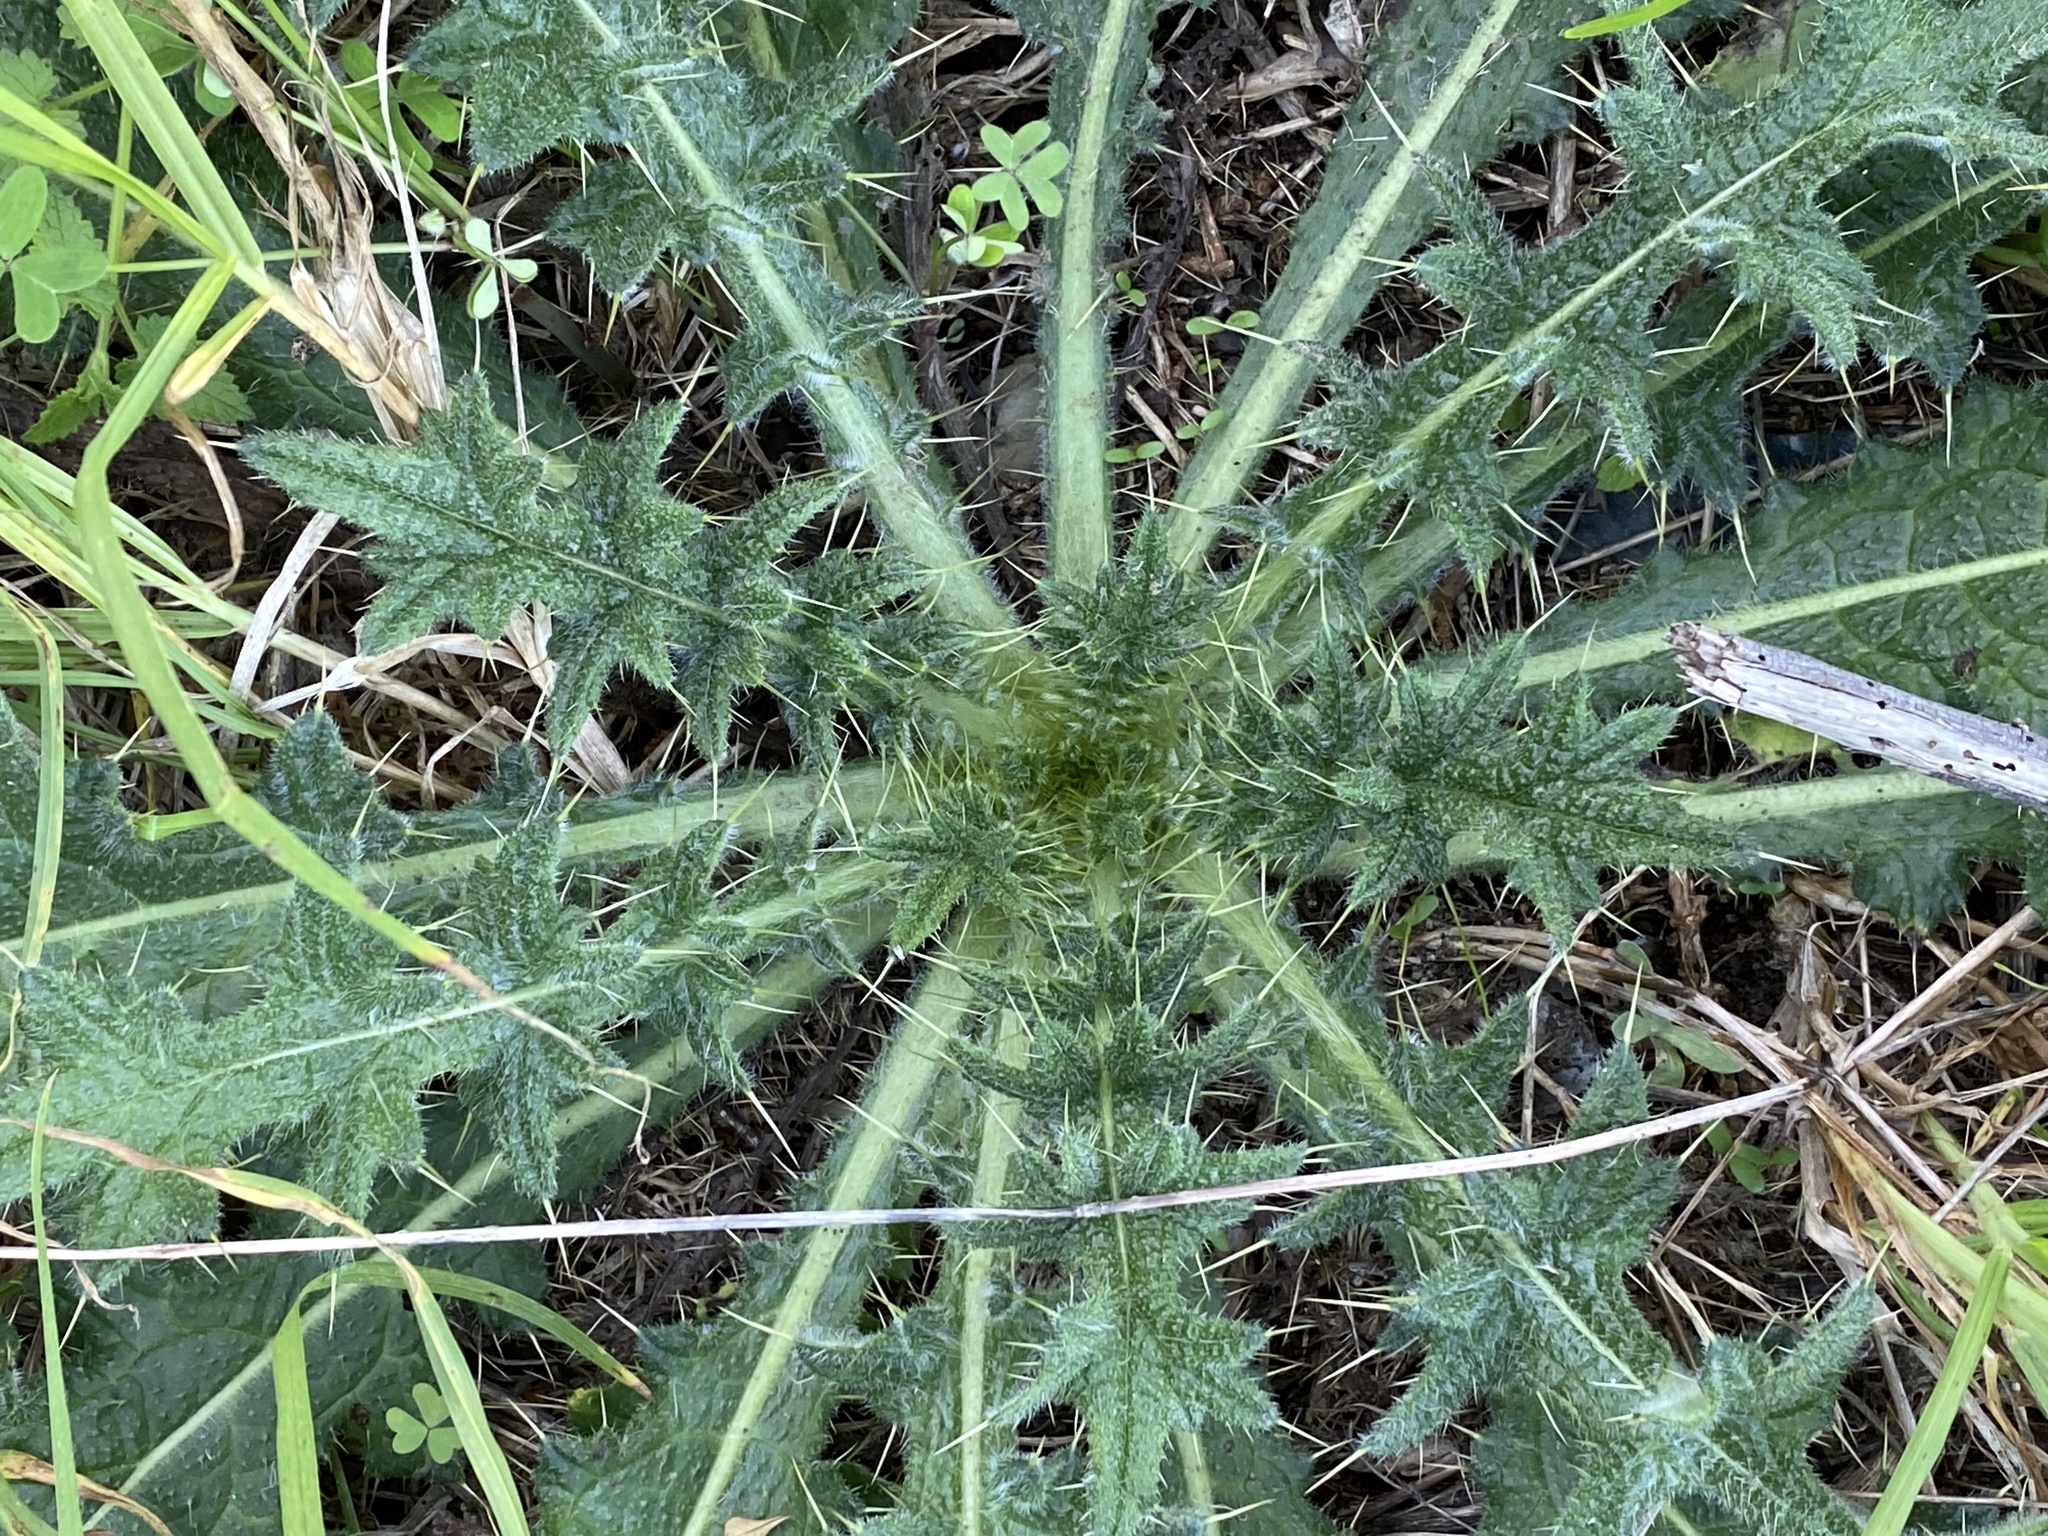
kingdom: Plantae
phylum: Tracheophyta
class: Magnoliopsida
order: Asterales
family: Asteraceae
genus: Cirsium
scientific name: Cirsium vulgare
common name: Bull thistle
